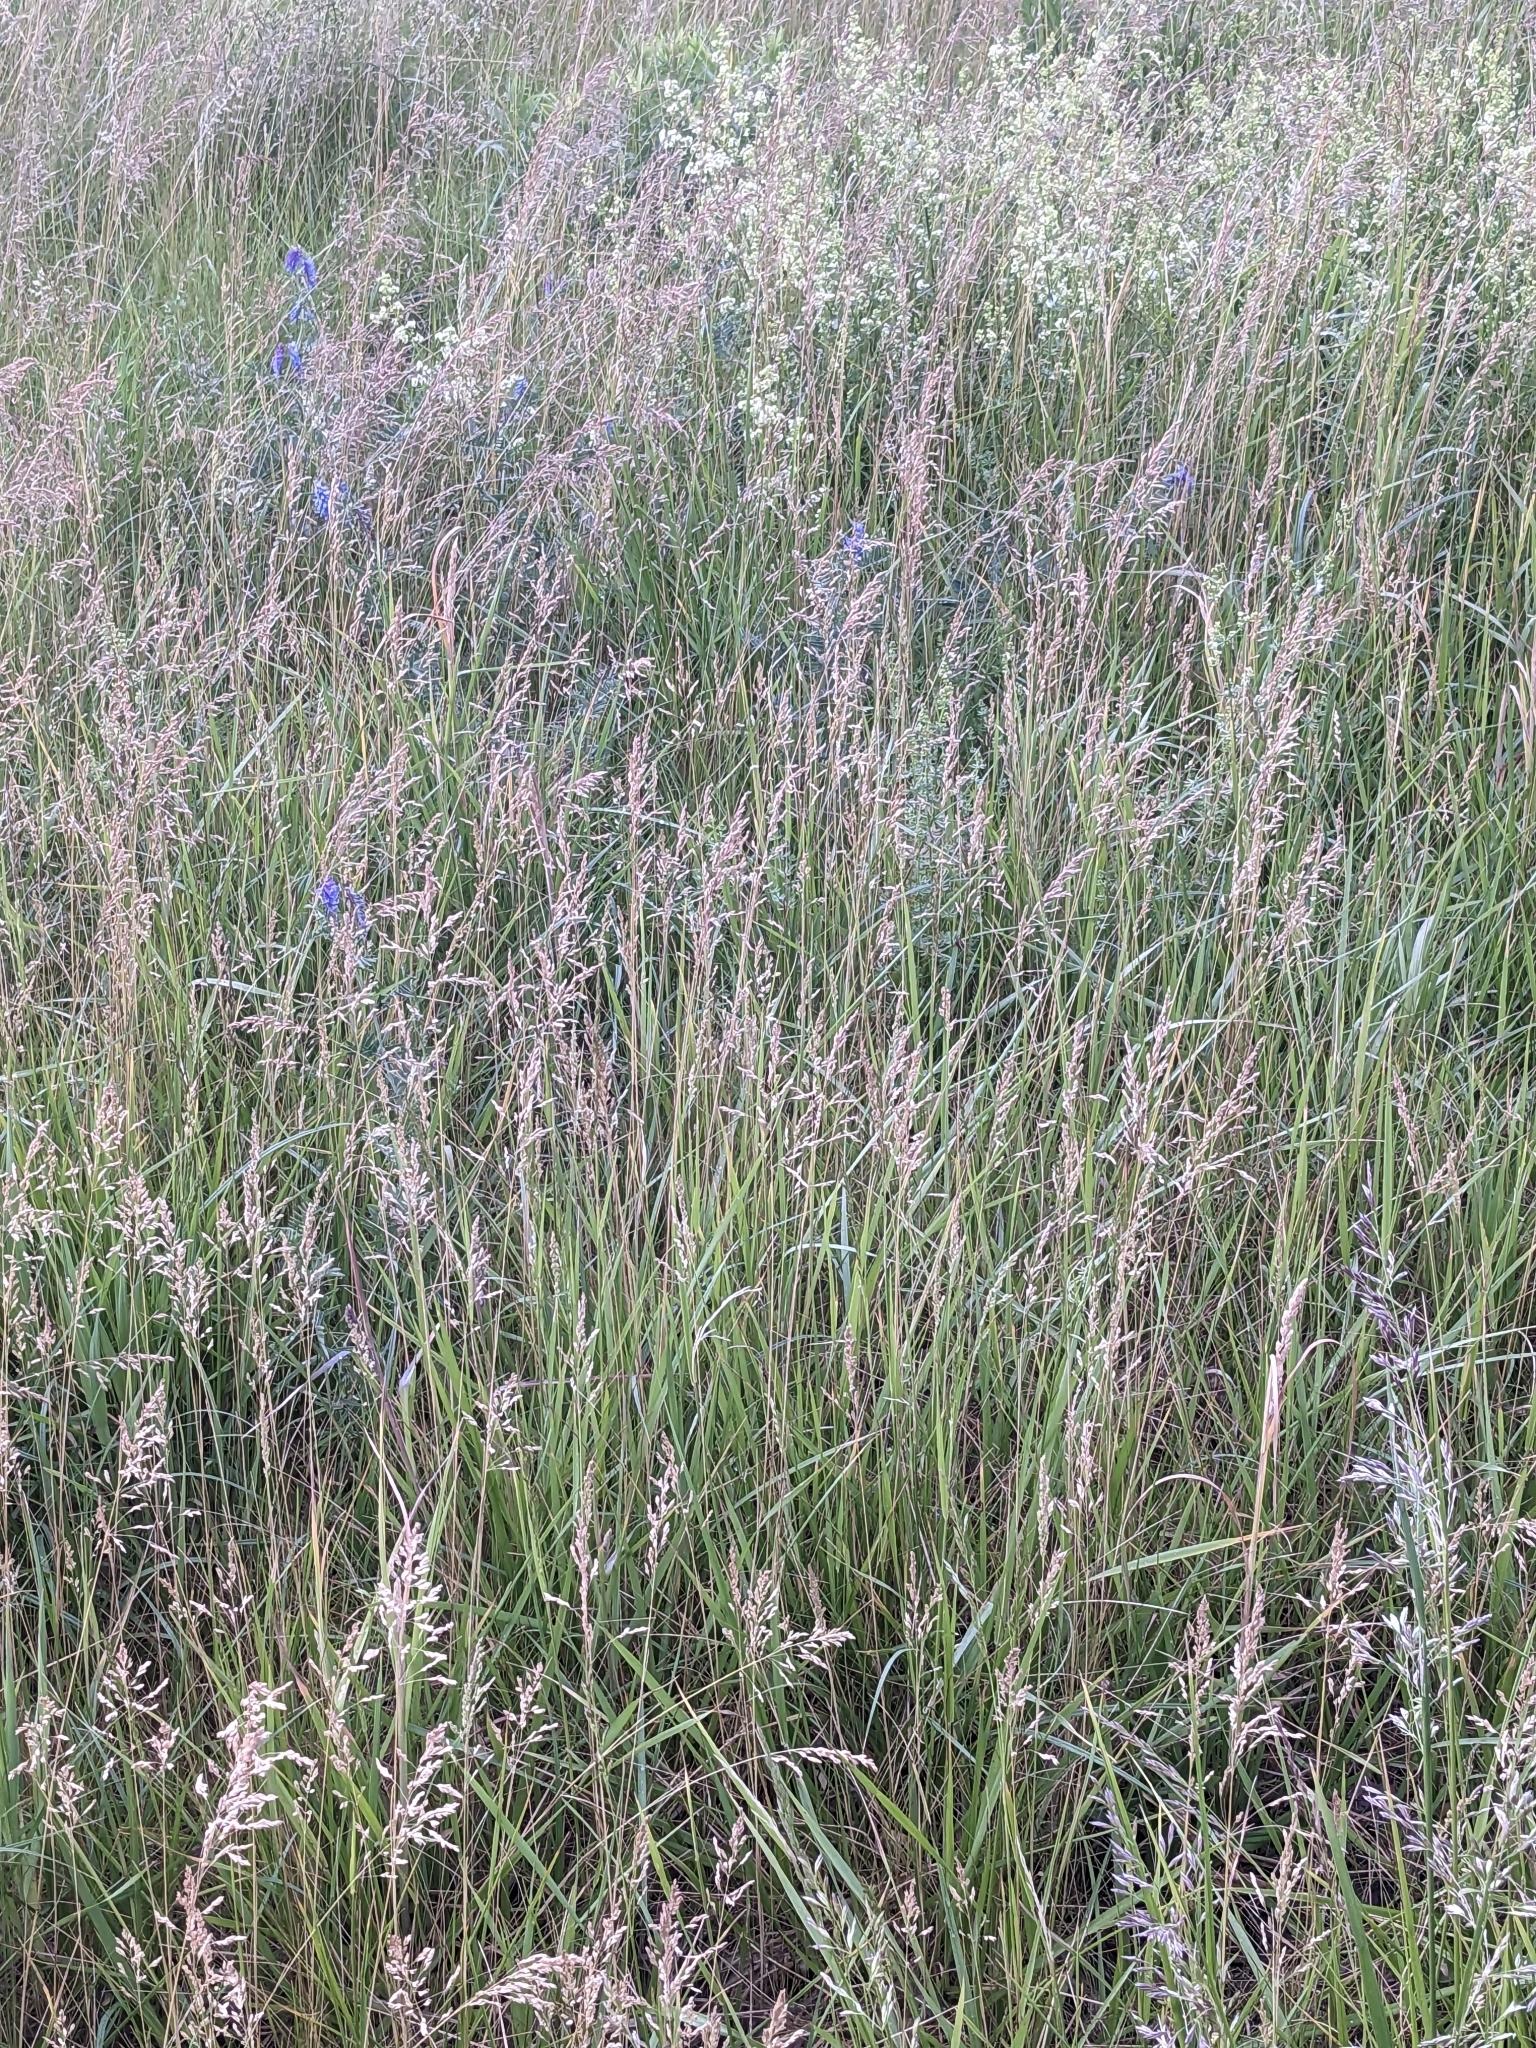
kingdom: Plantae
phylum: Tracheophyta
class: Magnoliopsida
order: Fabales
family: Fabaceae
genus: Vicia
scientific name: Vicia cracca
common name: Bird vetch
